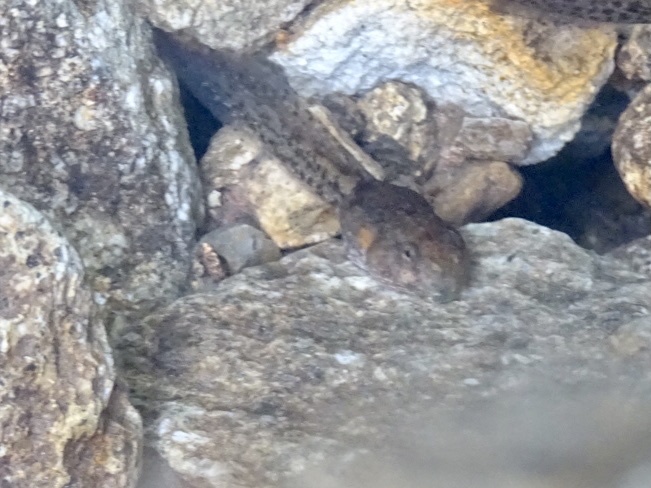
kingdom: Animalia
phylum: Chordata
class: Amphibia
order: Anura
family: Dicroglossidae
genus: Quasipaa
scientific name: Quasipaa exilispinosa
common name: Hong kong paa frog
